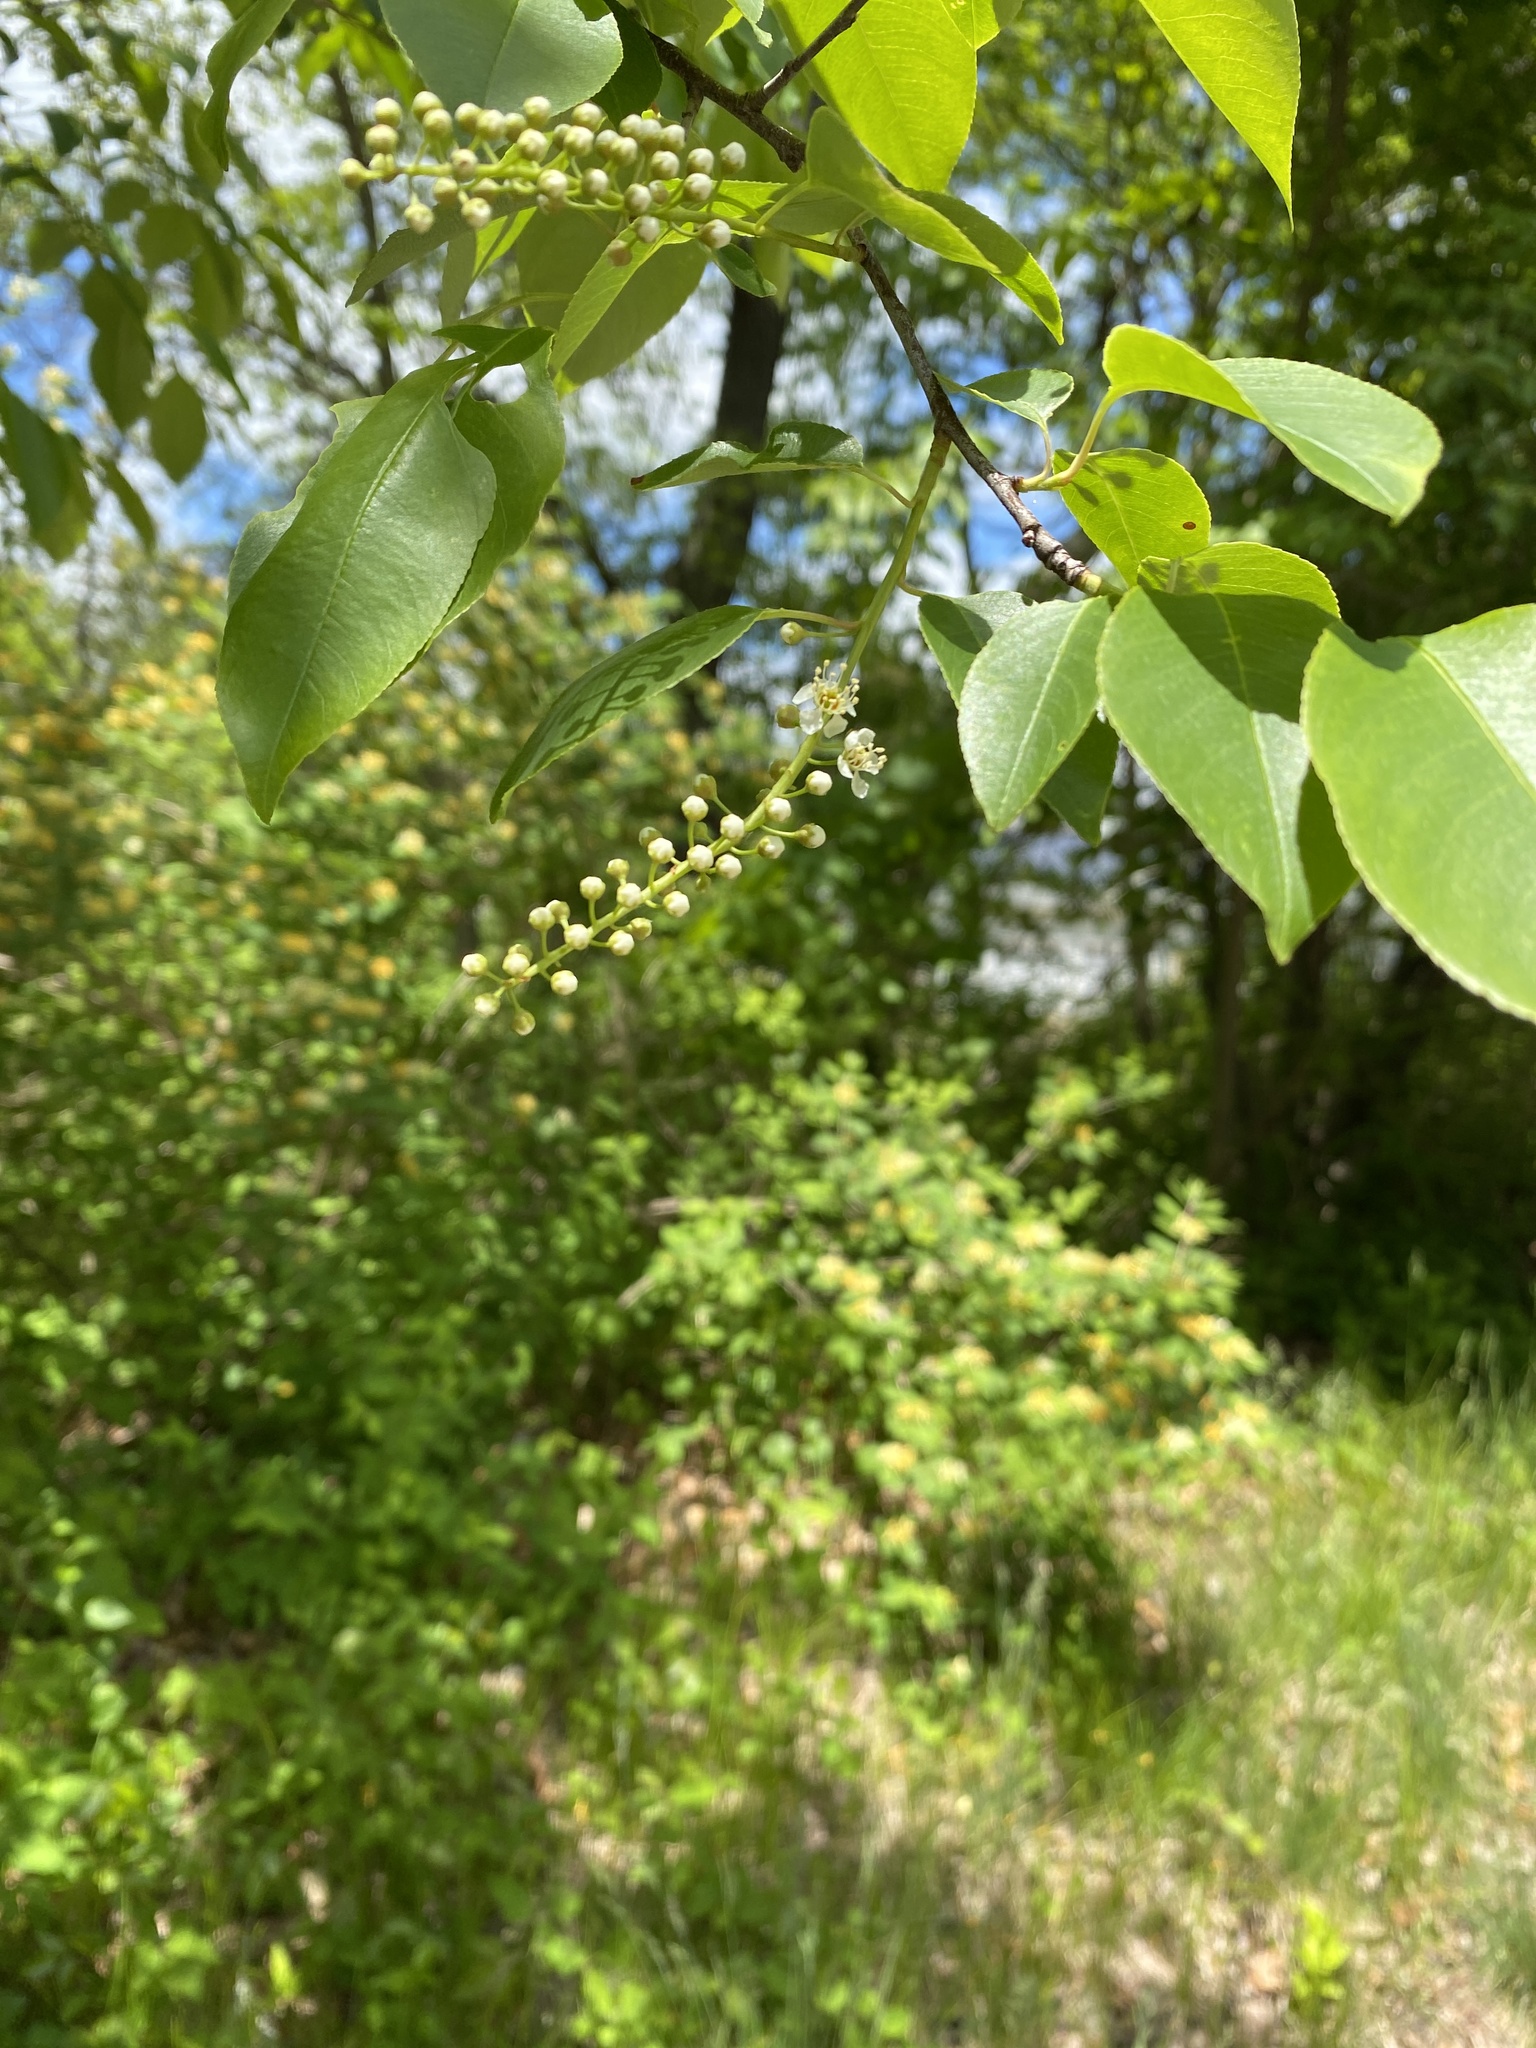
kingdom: Plantae
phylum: Tracheophyta
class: Magnoliopsida
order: Rosales
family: Rosaceae
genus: Prunus
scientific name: Prunus serotina
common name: Black cherry
